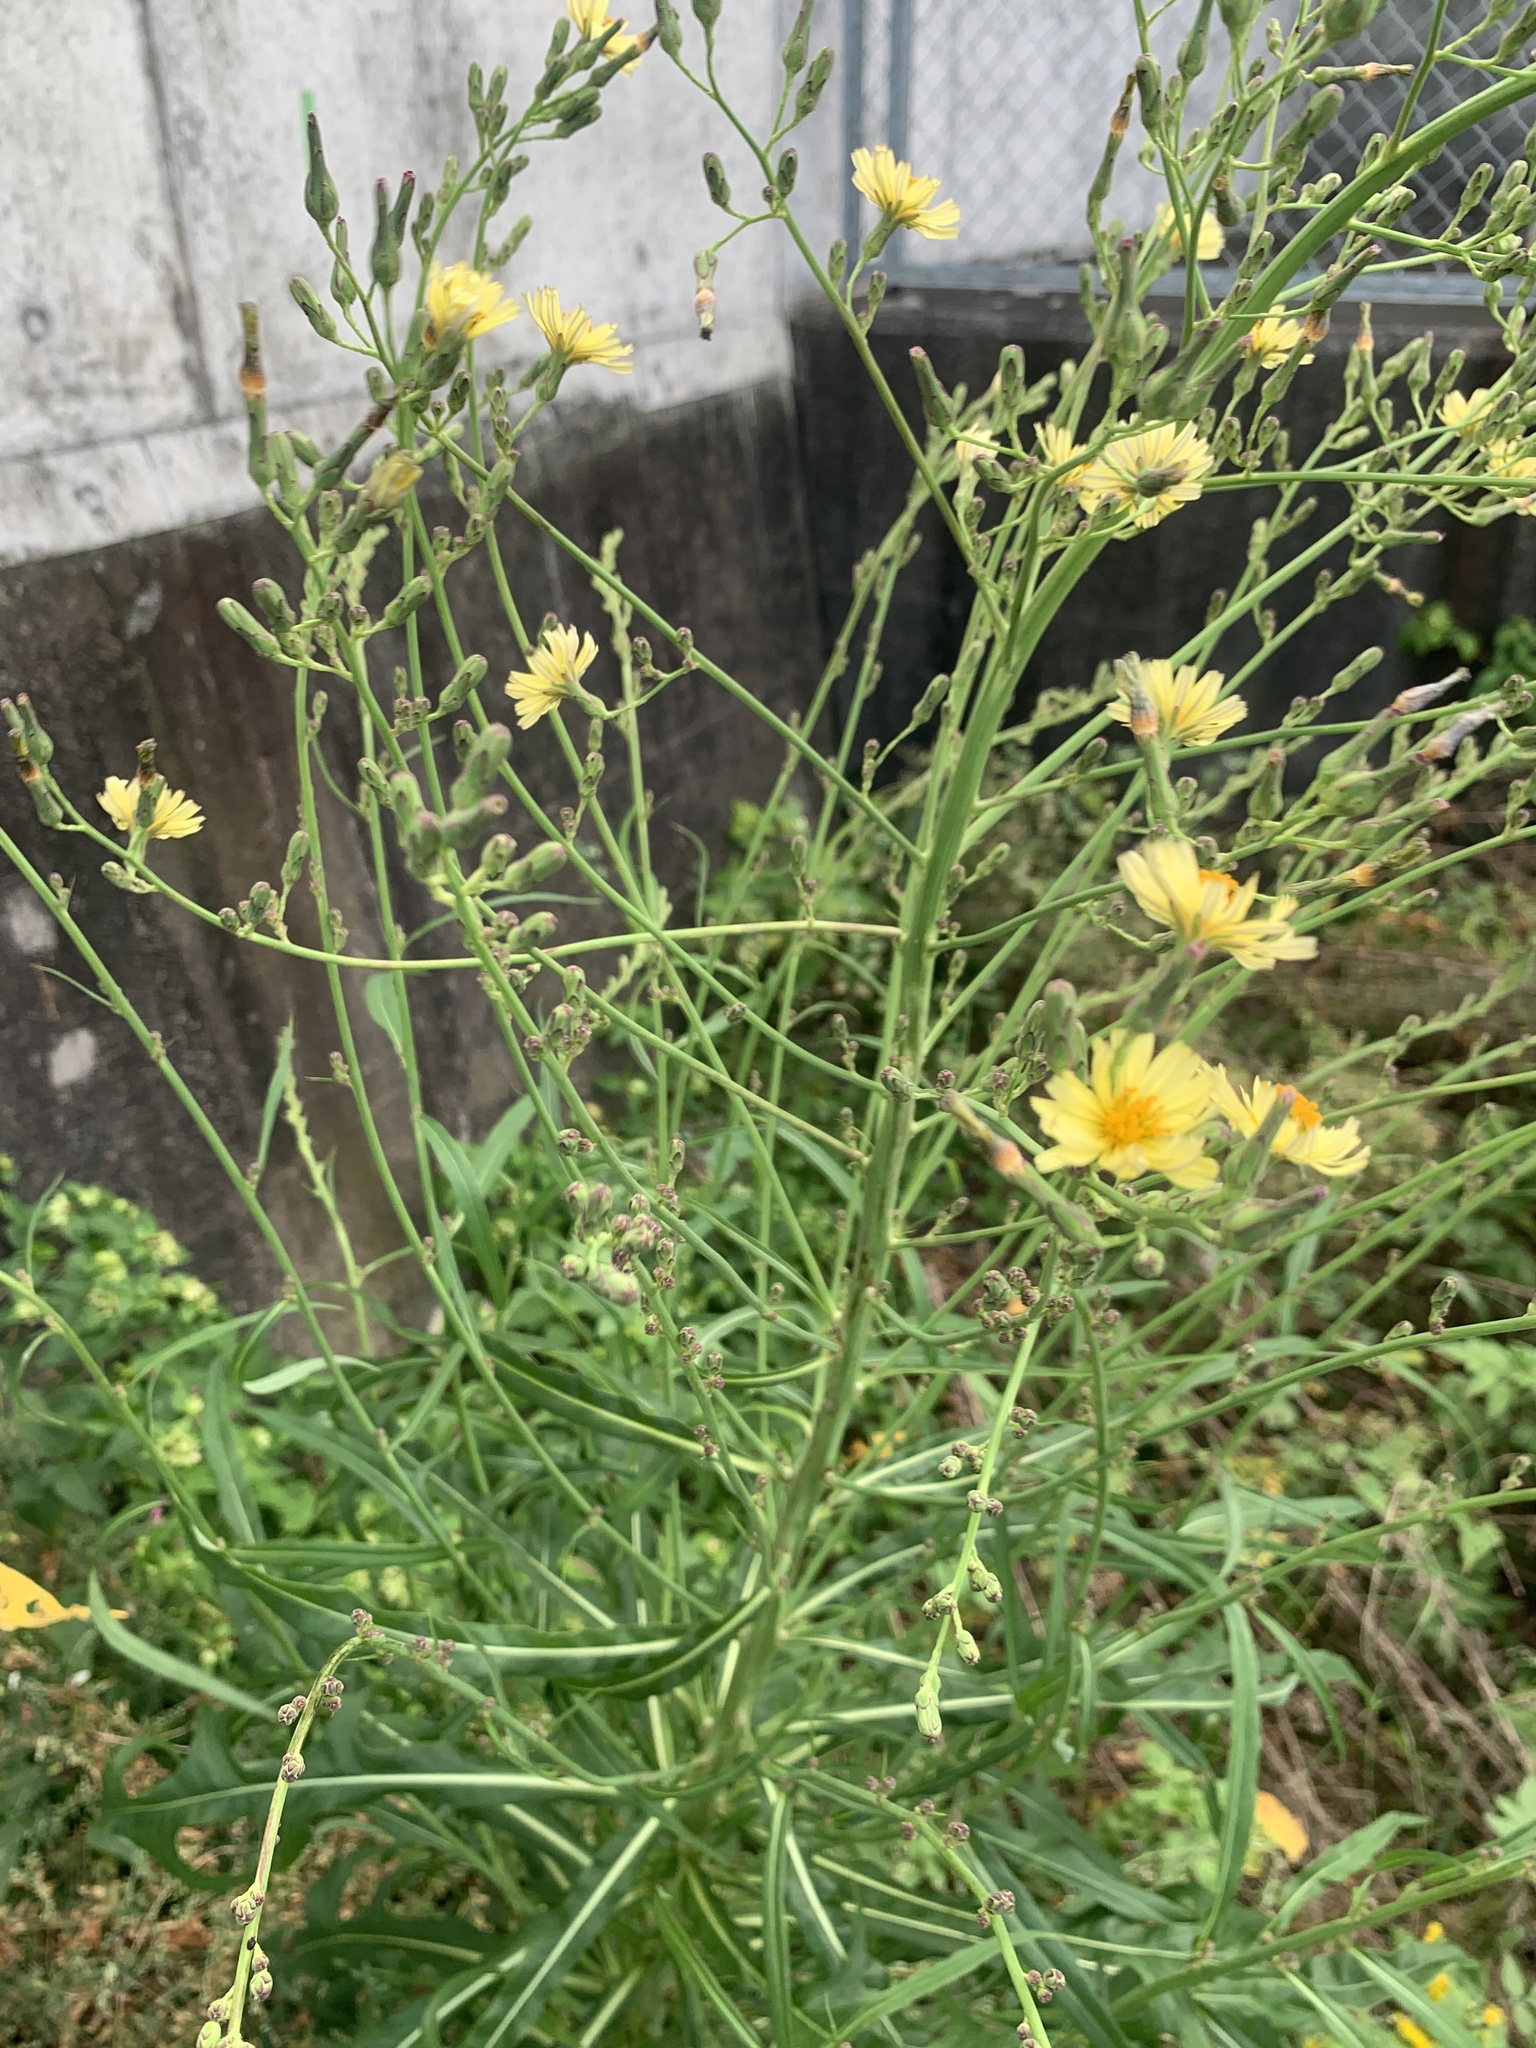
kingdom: Plantae
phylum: Tracheophyta
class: Magnoliopsida
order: Asterales
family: Asteraceae
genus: Lactuca
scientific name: Lactuca indica
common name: Wild lettuce
